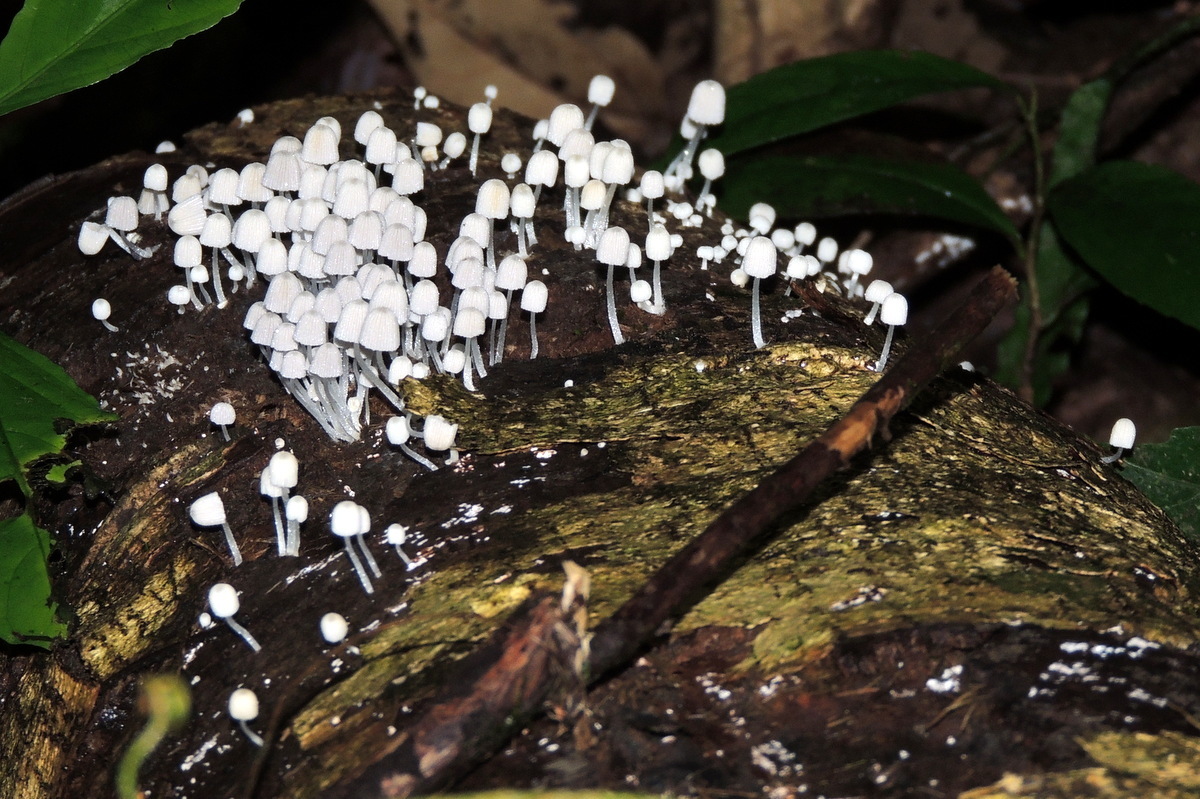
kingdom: Fungi
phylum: Basidiomycota
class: Agaricomycetes
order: Agaricales
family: Psathyrellaceae
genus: Coprinellus
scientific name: Coprinellus disseminatus
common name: Fairies' bonnets
